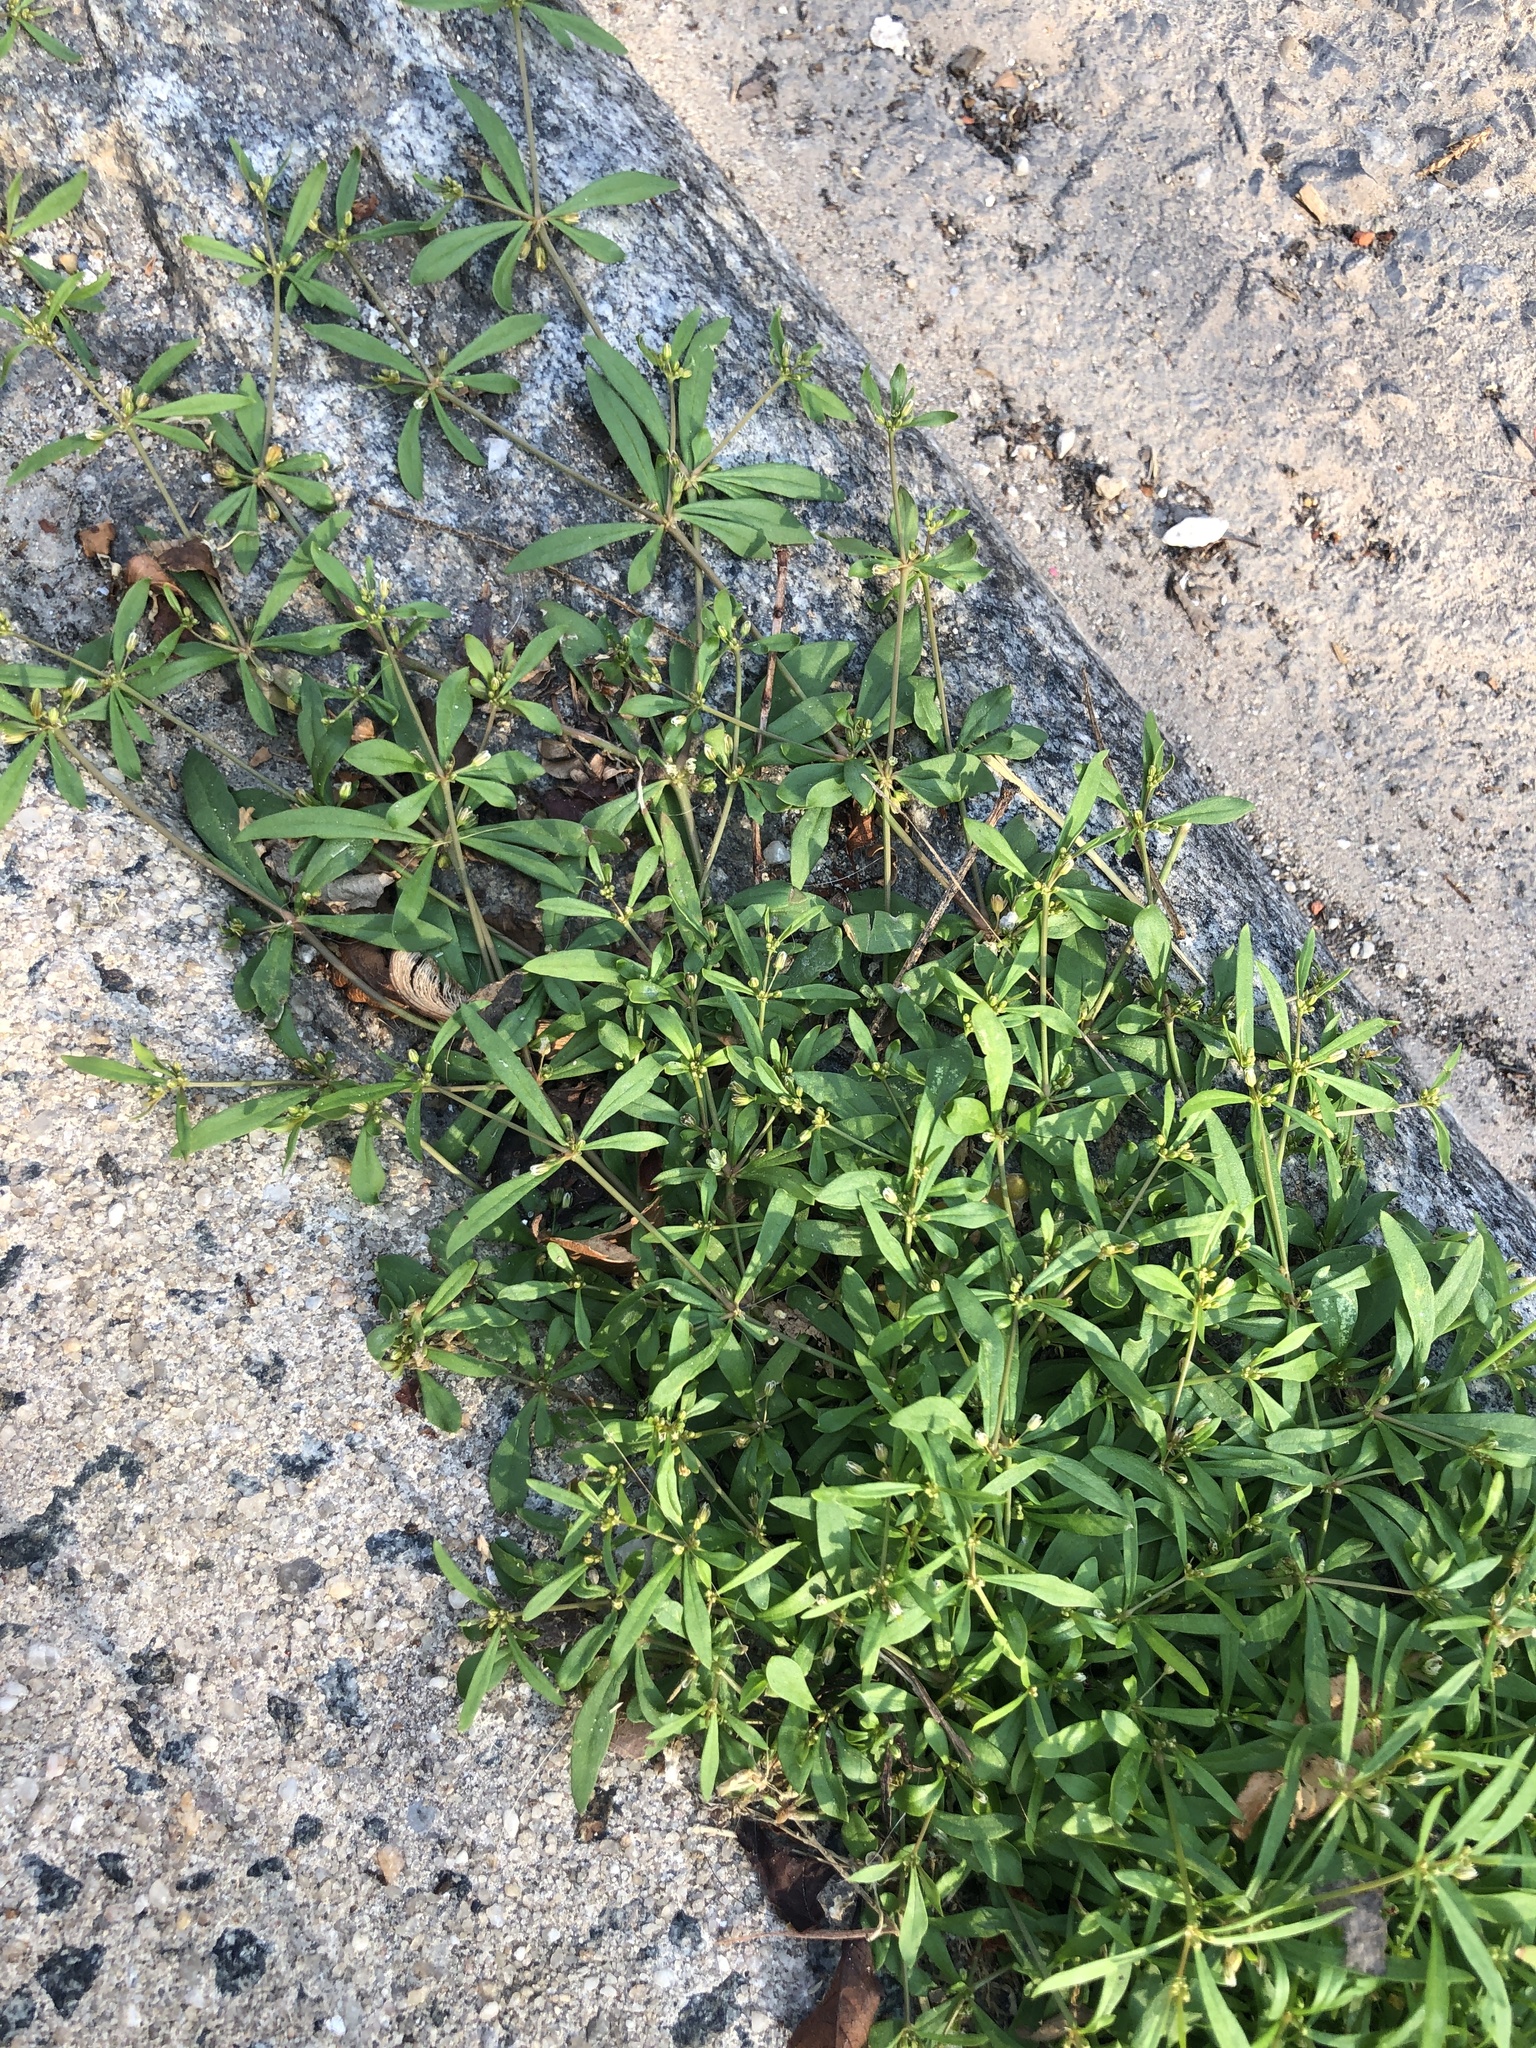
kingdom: Plantae
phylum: Tracheophyta
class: Magnoliopsida
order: Caryophyllales
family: Molluginaceae
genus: Mollugo
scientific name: Mollugo verticillata
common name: Green carpetweed
